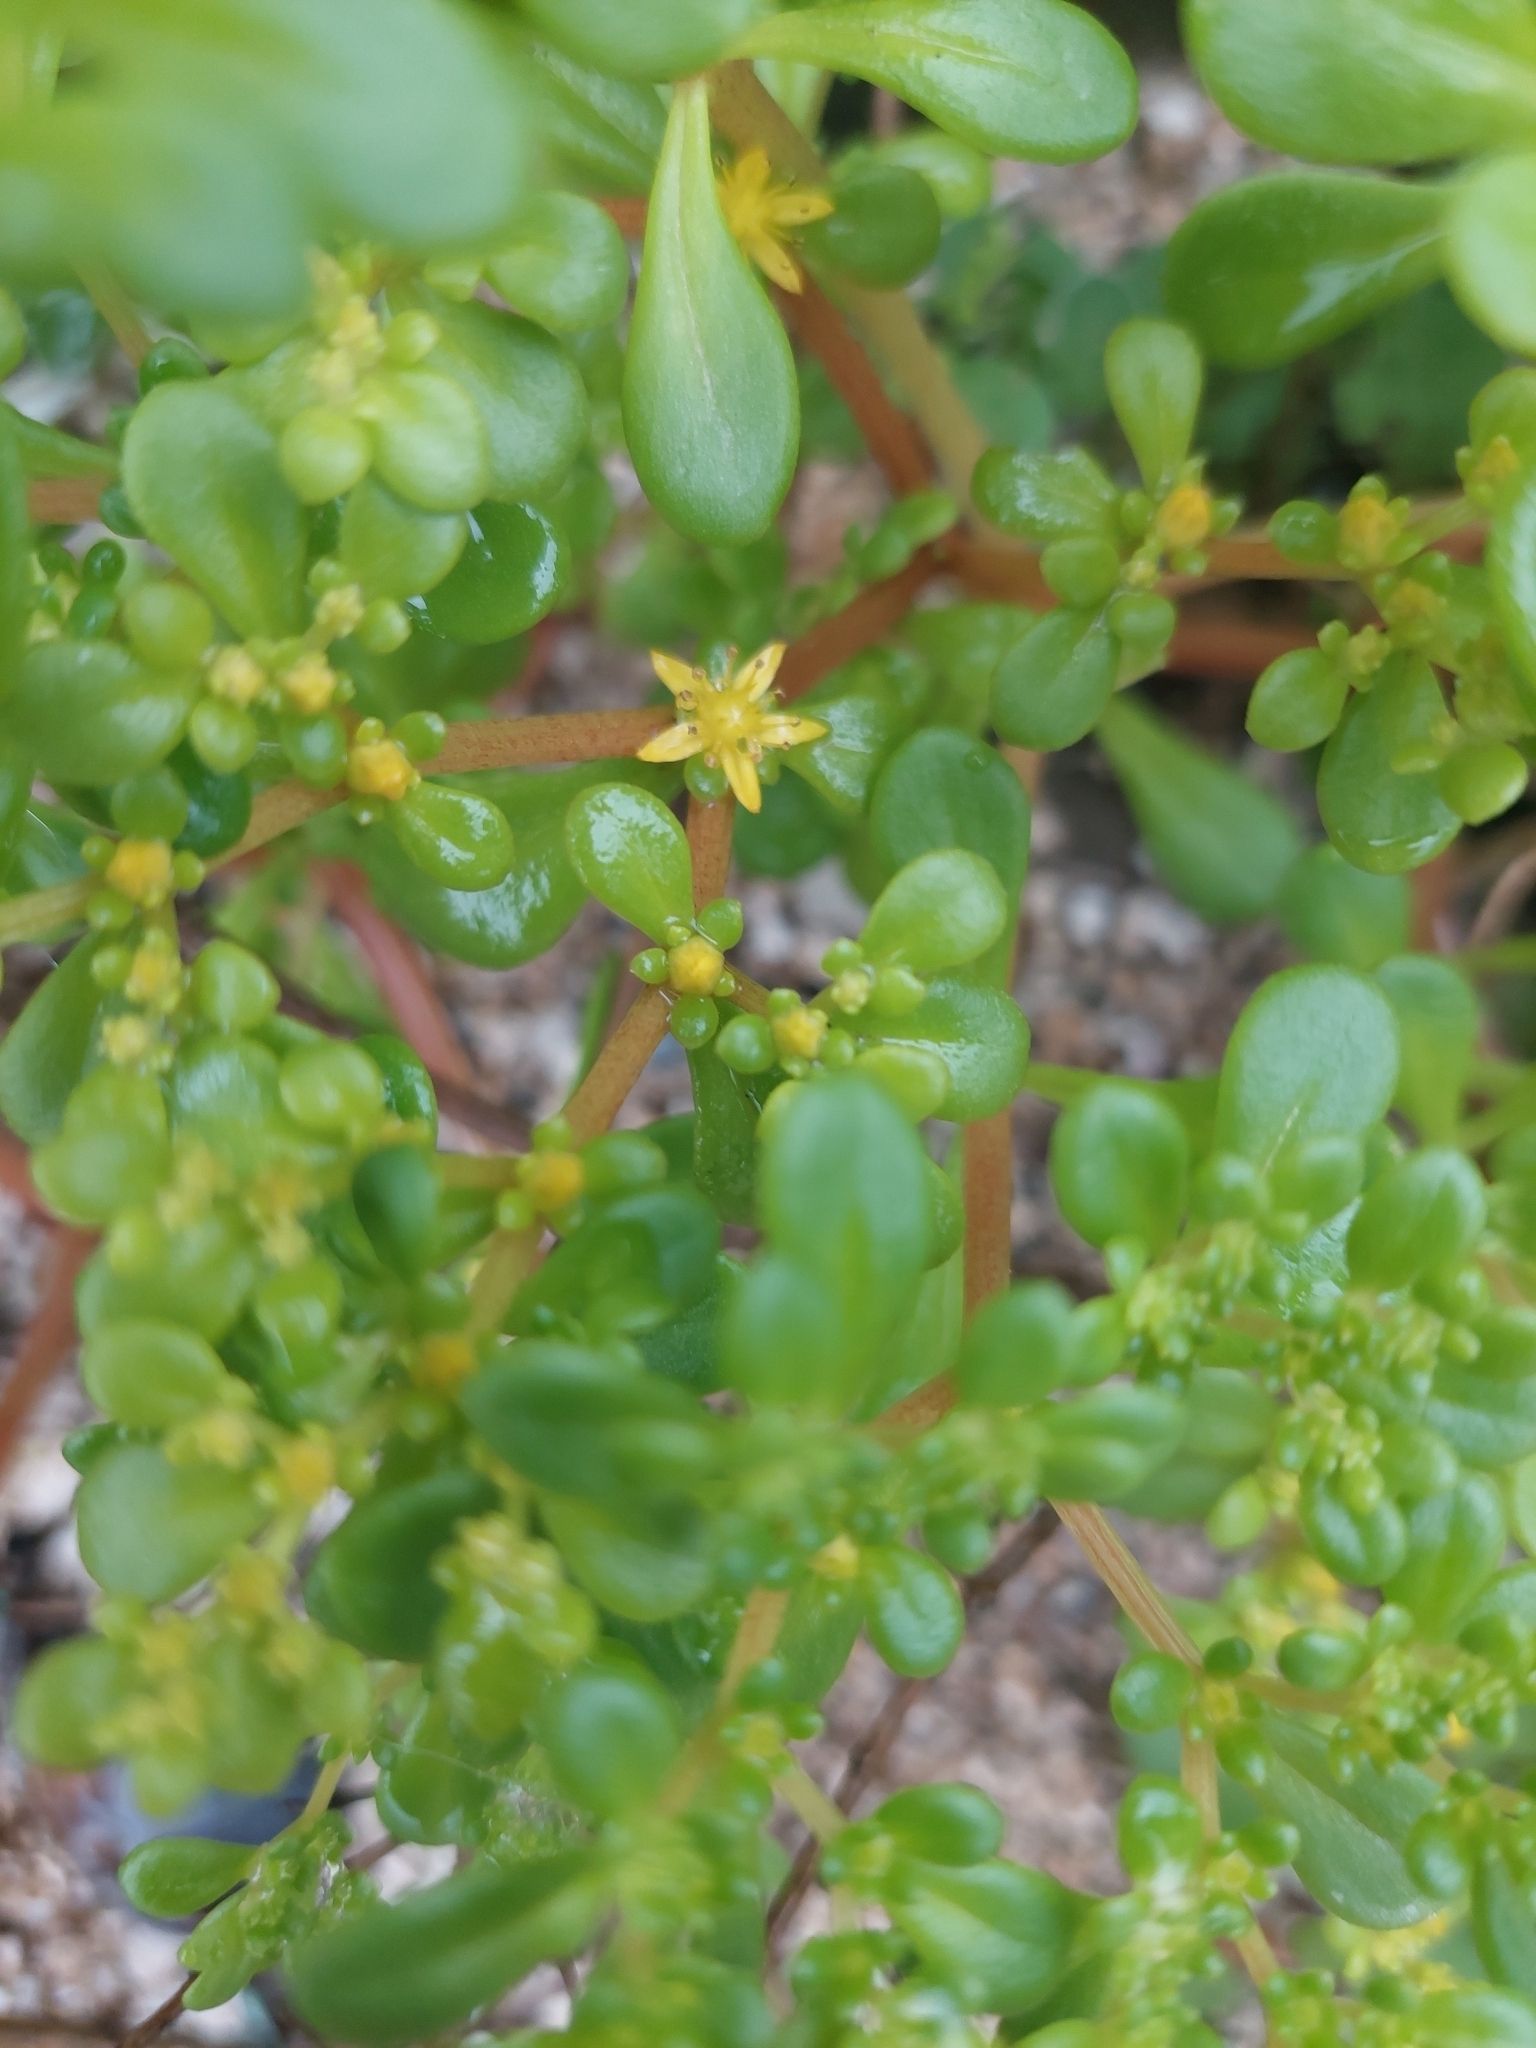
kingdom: Plantae
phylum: Tracheophyta
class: Magnoliopsida
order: Saxifragales
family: Crassulaceae
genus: Sedum
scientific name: Sedum formosanum
